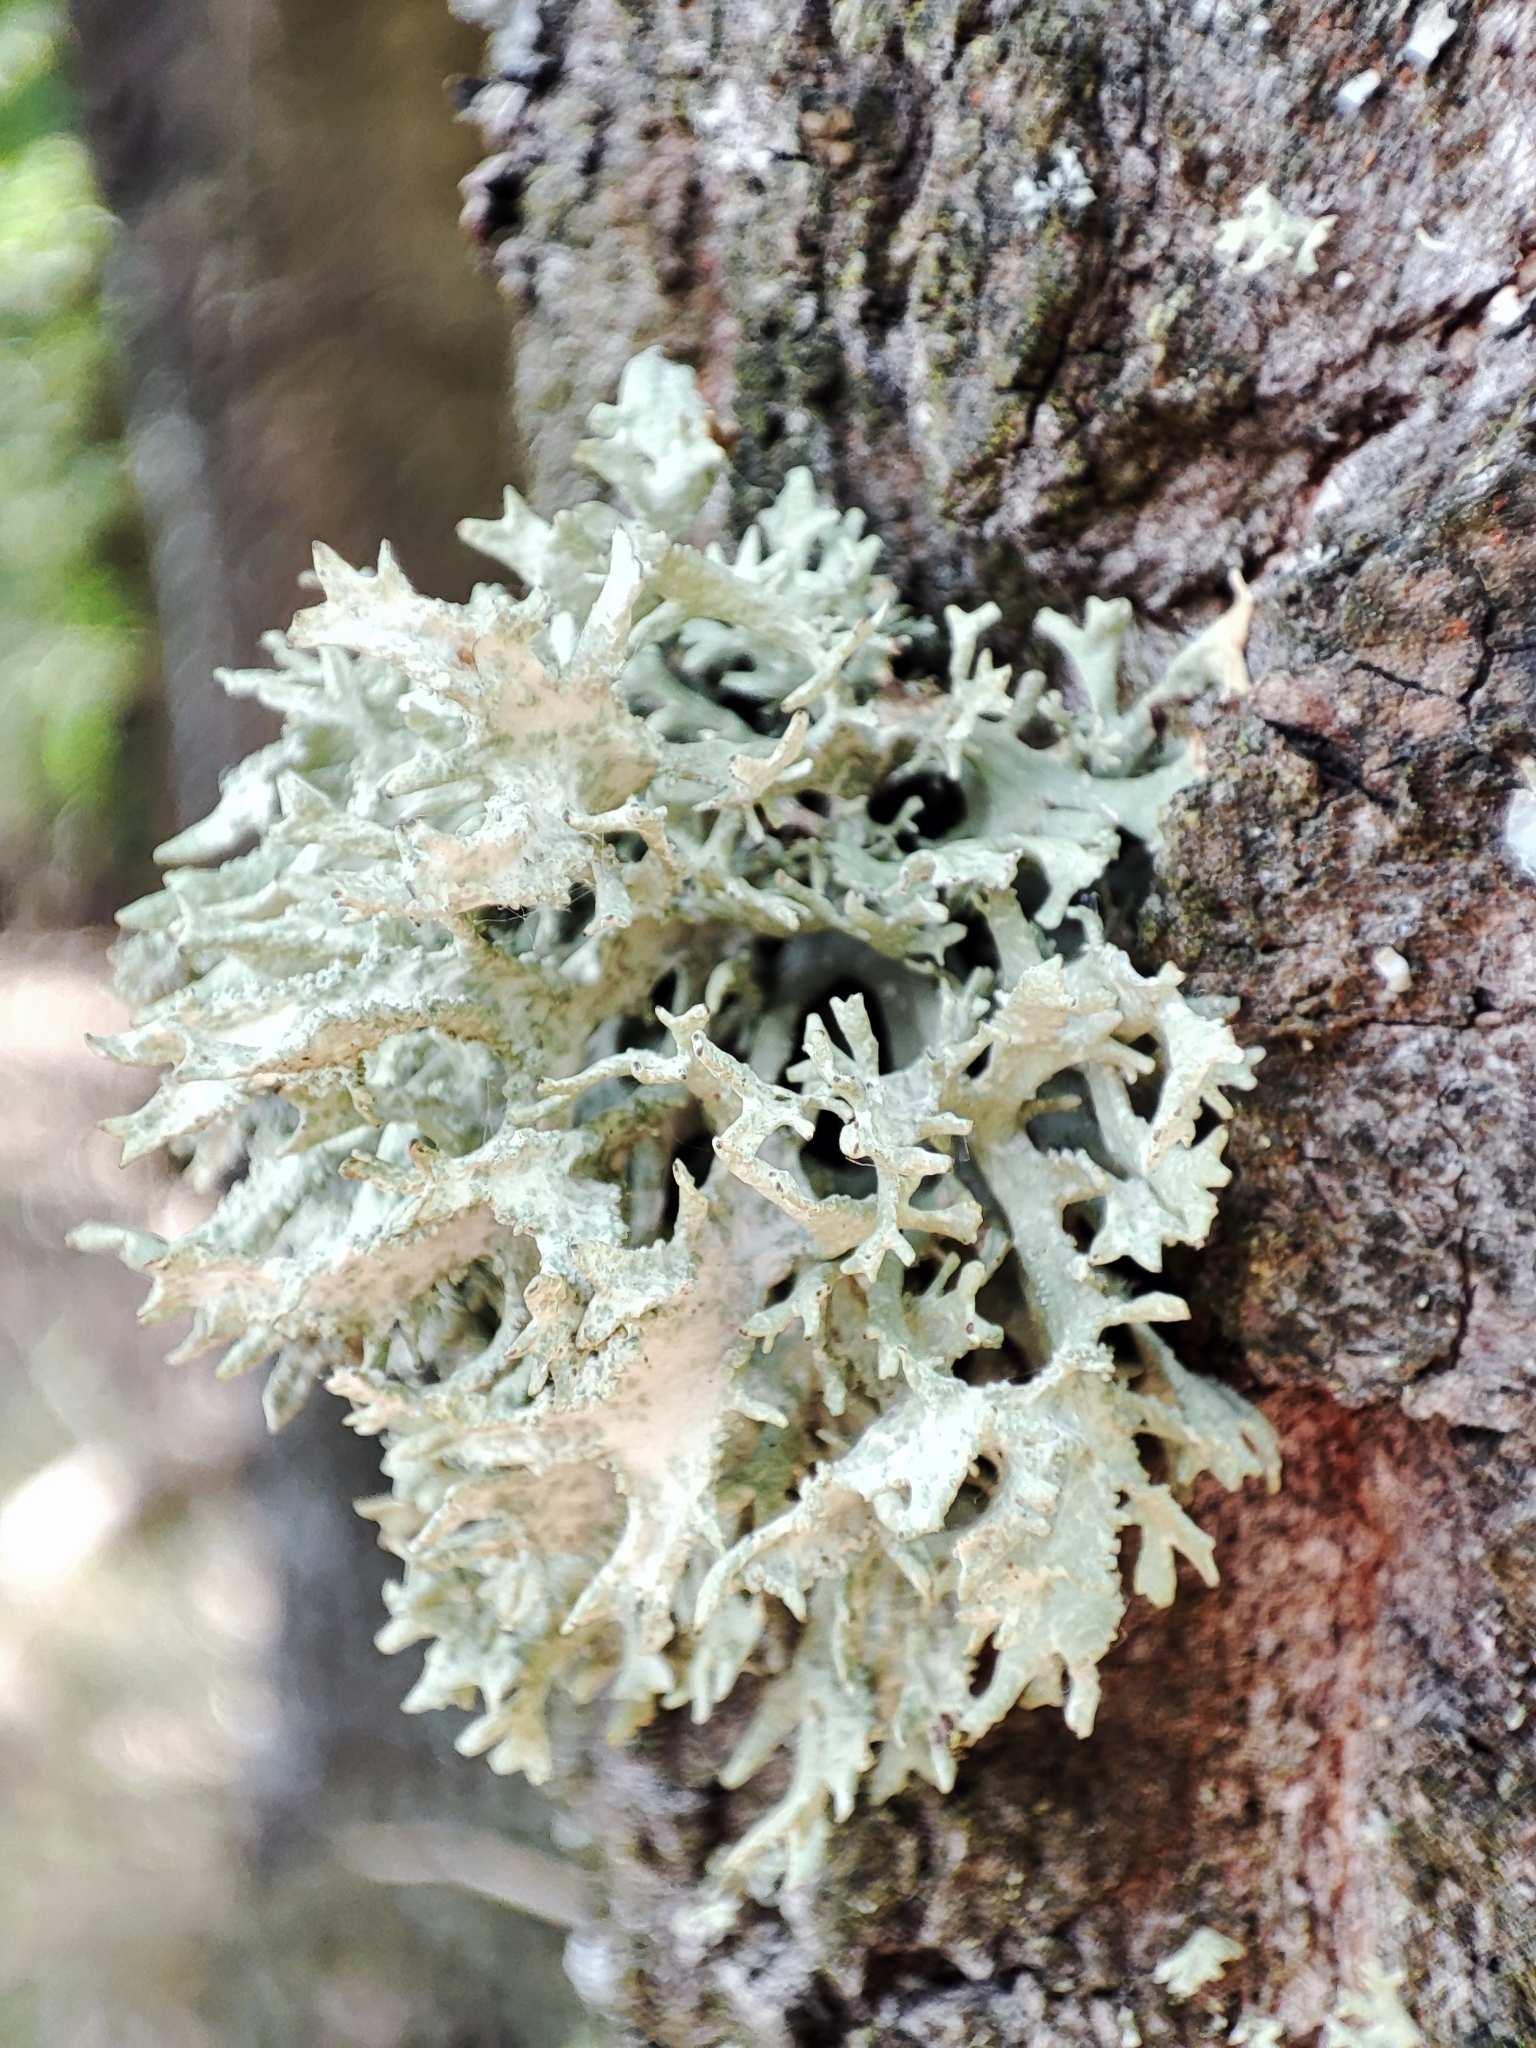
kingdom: Fungi
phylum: Ascomycota
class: Lecanoromycetes
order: Lecanorales
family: Parmeliaceae
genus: Evernia
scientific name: Evernia prunastri
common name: Oak moss
